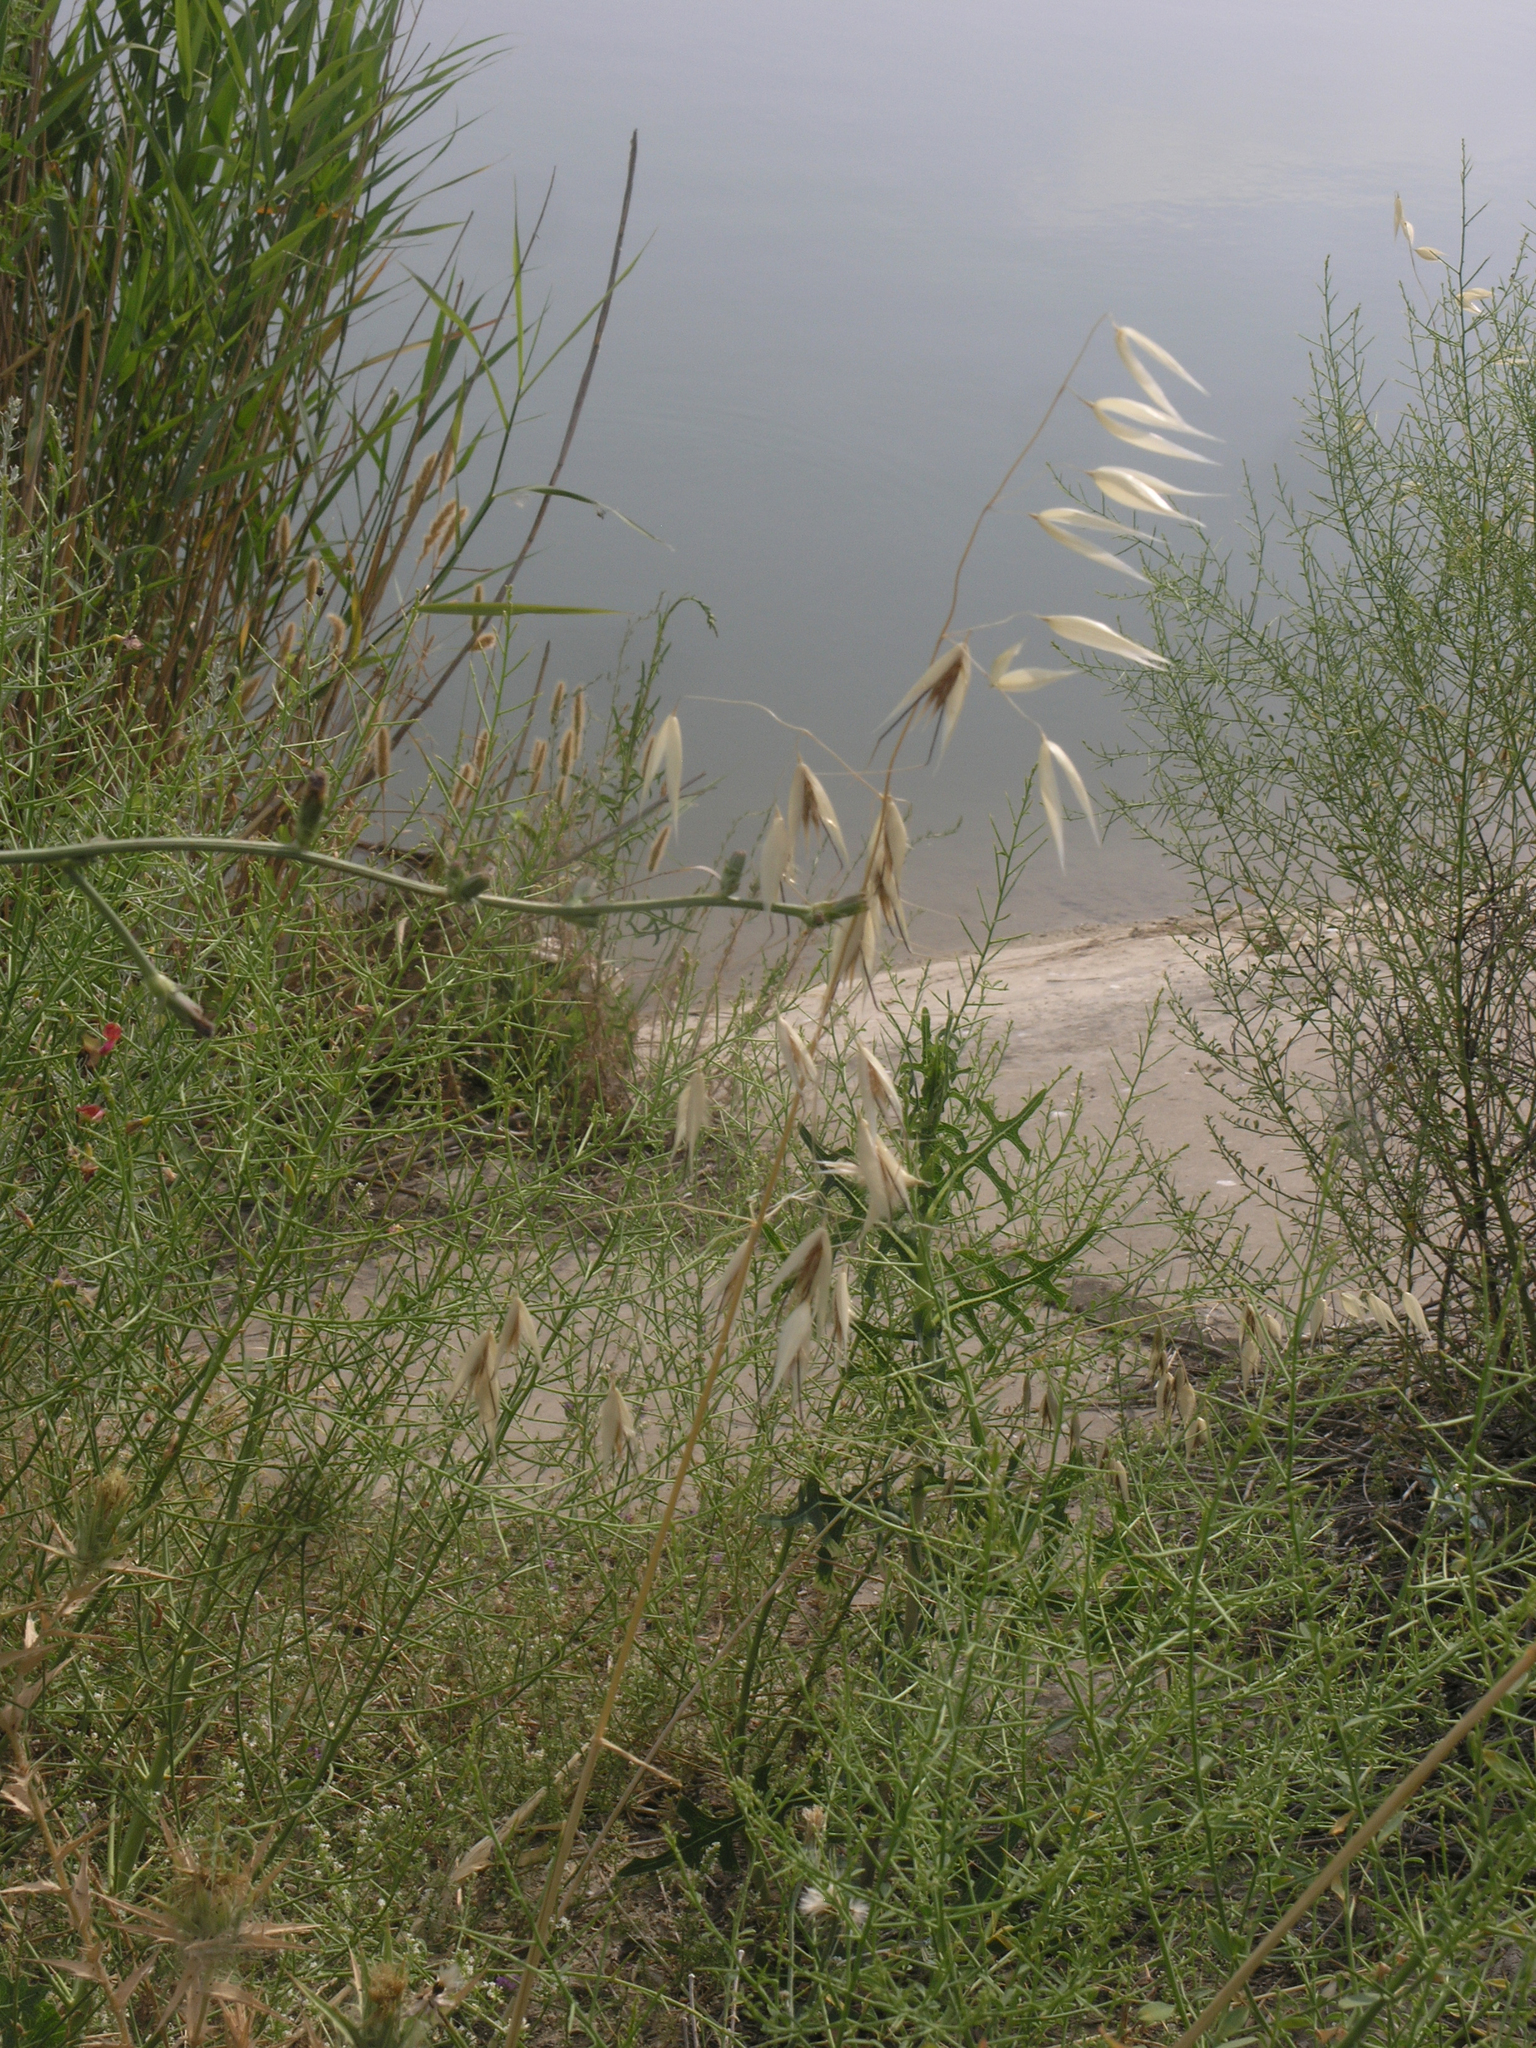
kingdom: Plantae
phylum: Tracheophyta
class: Liliopsida
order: Poales
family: Poaceae
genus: Avena
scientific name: Avena fatua
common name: Wild oat
